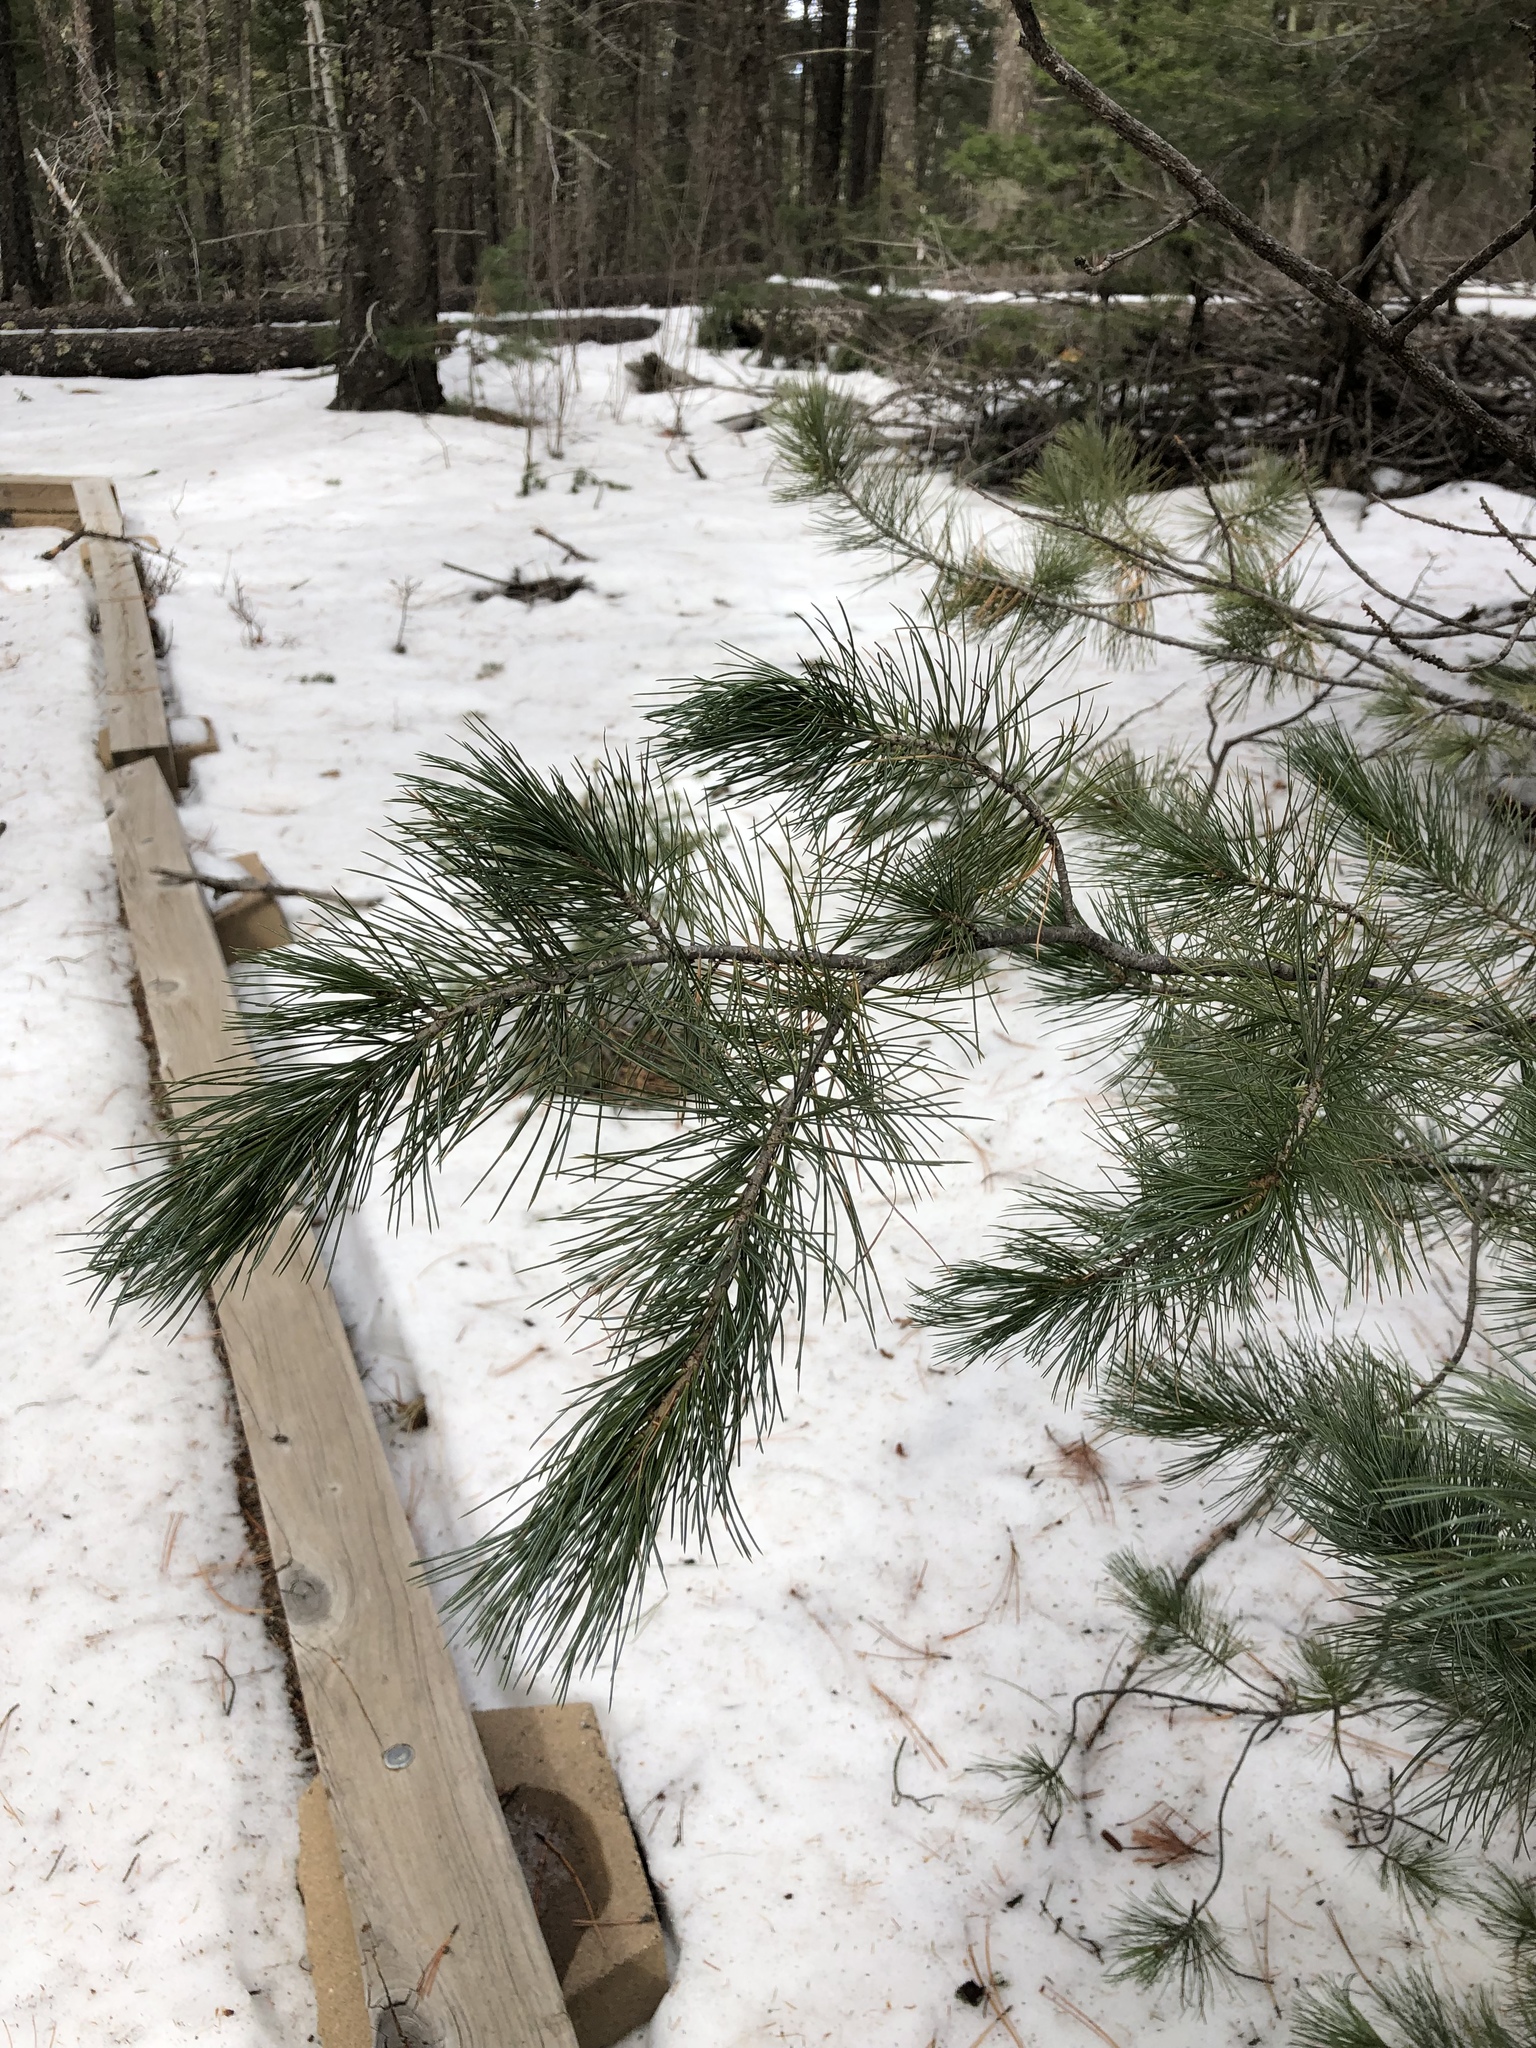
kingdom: Plantae
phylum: Tracheophyta
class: Pinopsida
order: Pinales
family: Pinaceae
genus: Pinus
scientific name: Pinus strobiformis
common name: Southwestern white pine
